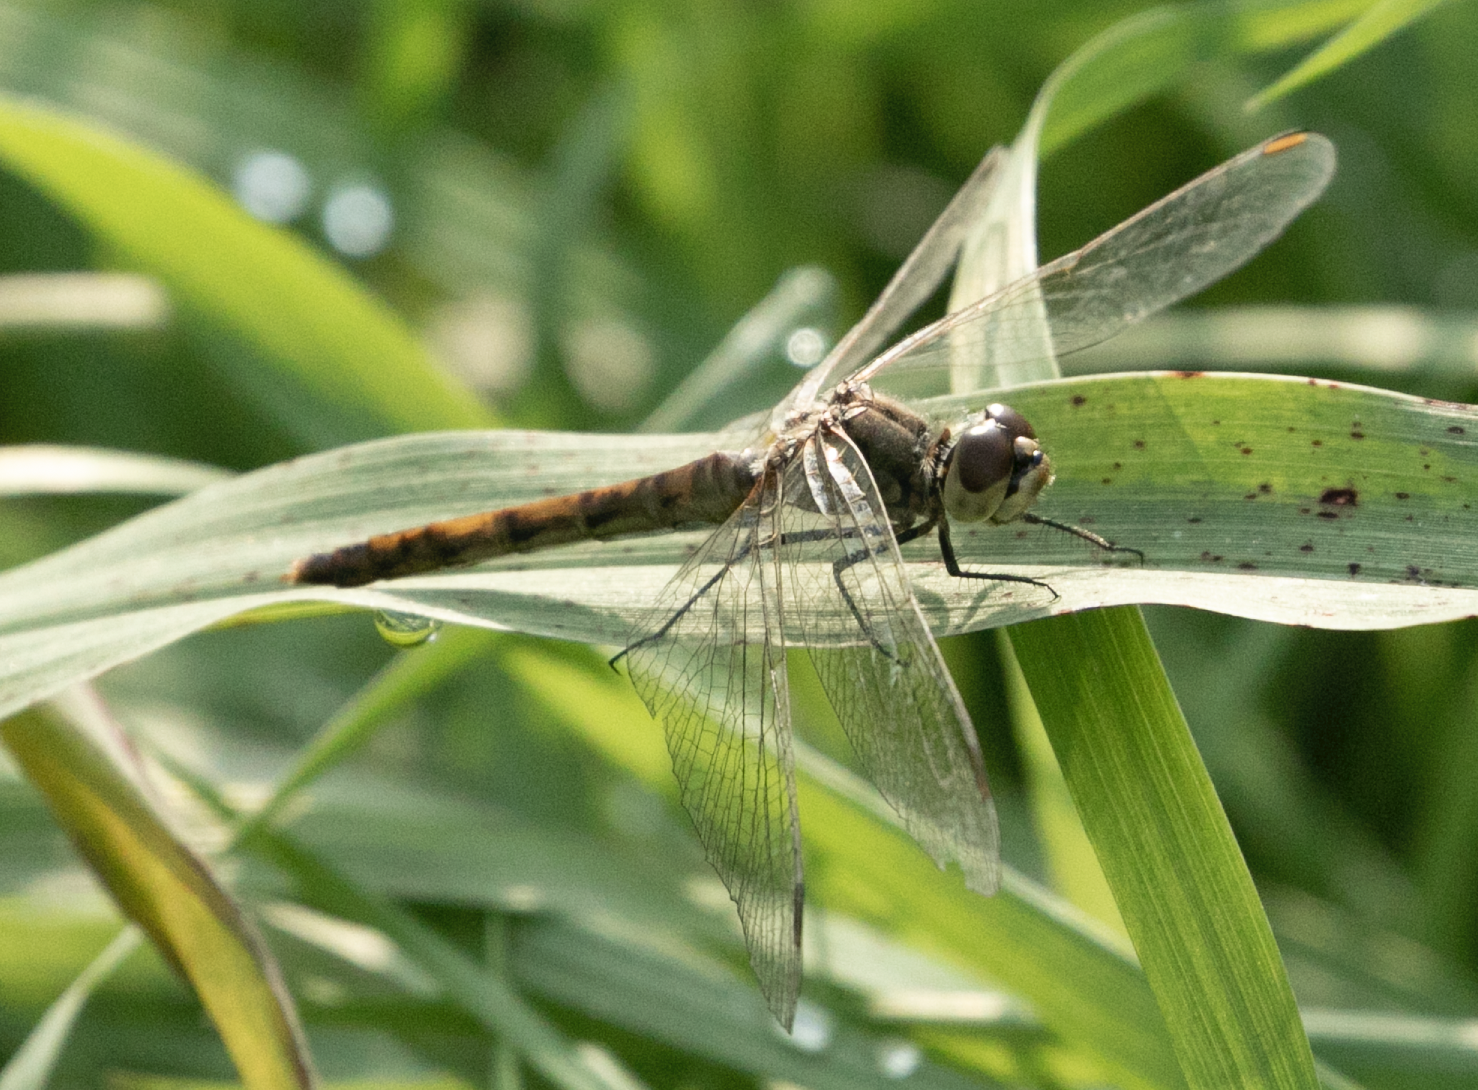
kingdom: Animalia
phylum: Arthropoda
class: Insecta
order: Odonata
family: Libellulidae
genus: Sympetrum
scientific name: Sympetrum depressiusculum
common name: Spotted darter
